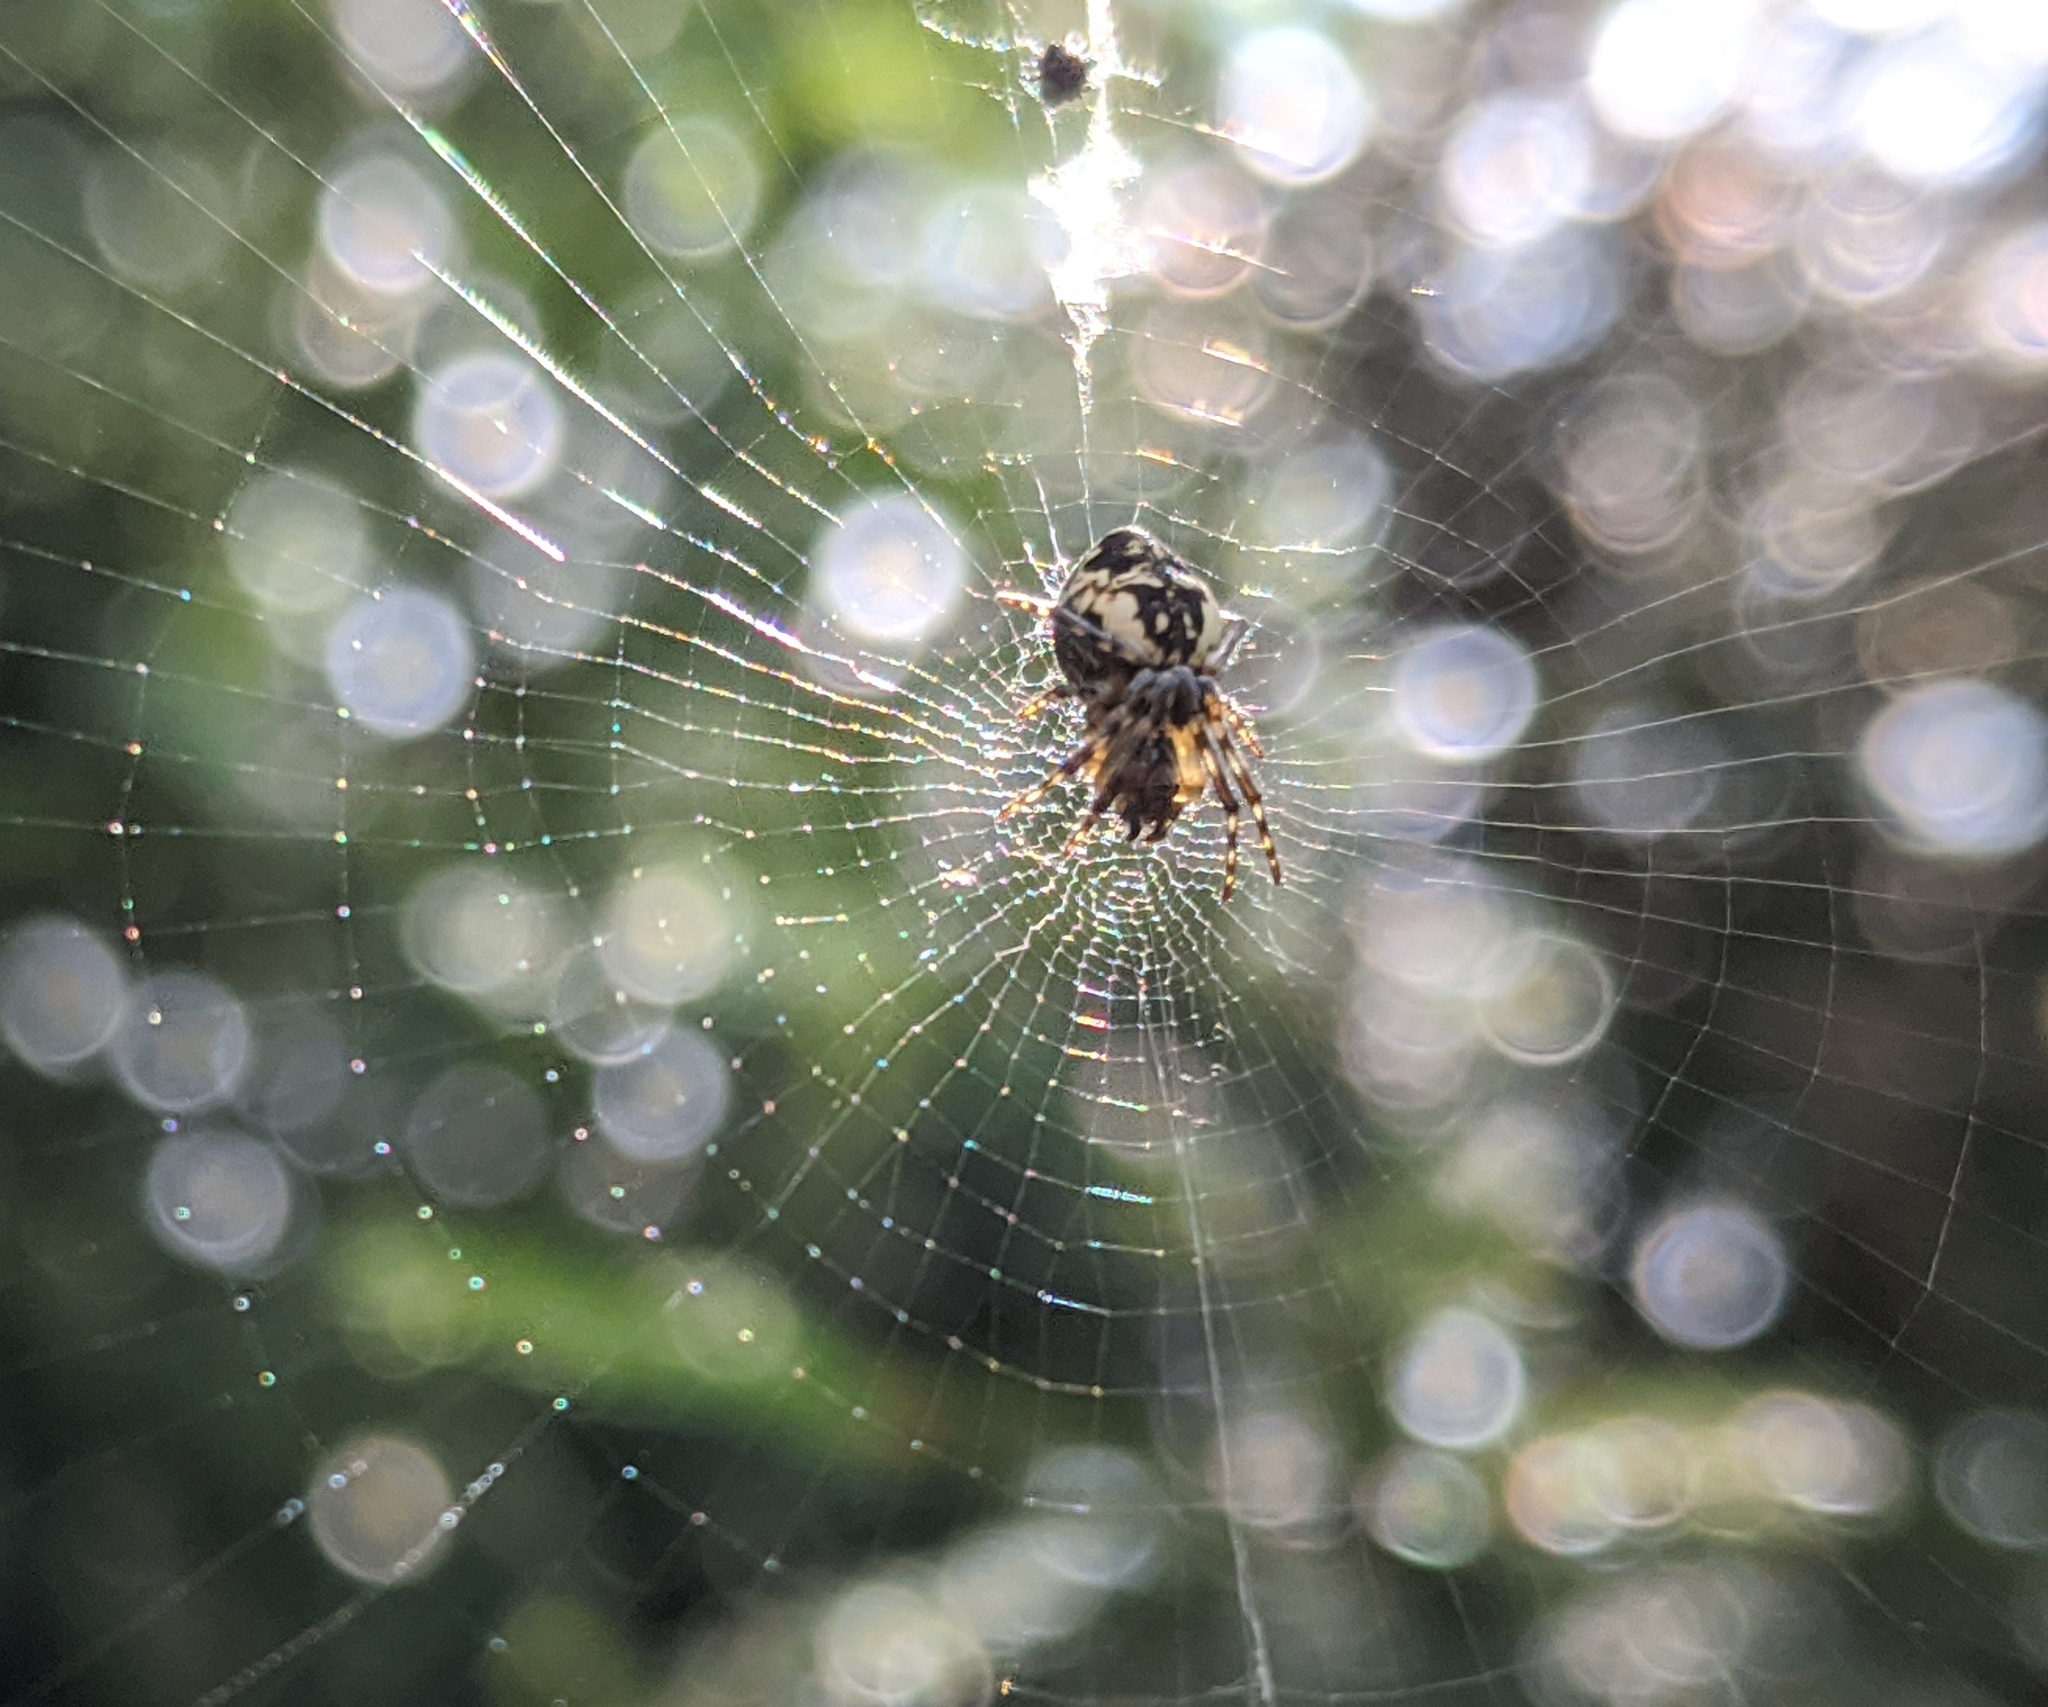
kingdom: Animalia
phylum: Arthropoda
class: Arachnida
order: Araneae
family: Araneidae
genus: Cyclosa
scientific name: Cyclosa conica
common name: Conical trashline orbweaver
